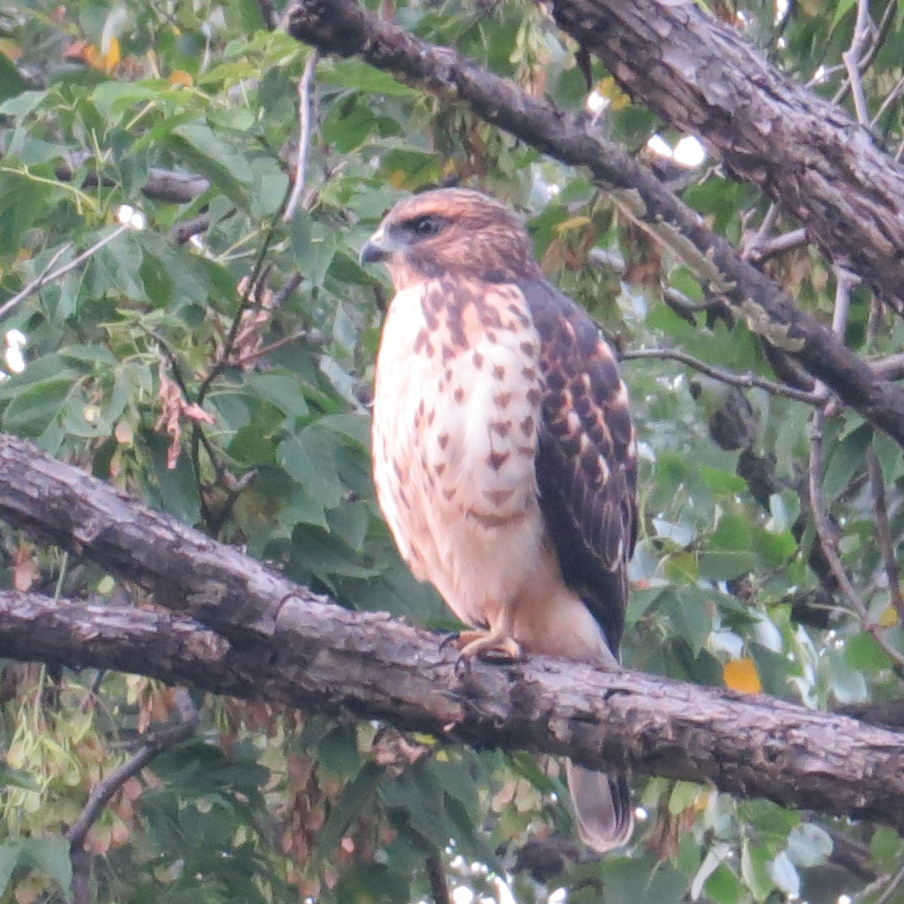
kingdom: Animalia
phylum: Chordata
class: Aves
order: Accipitriformes
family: Accipitridae
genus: Buteo
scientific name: Buteo platypterus
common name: Broad-winged hawk
